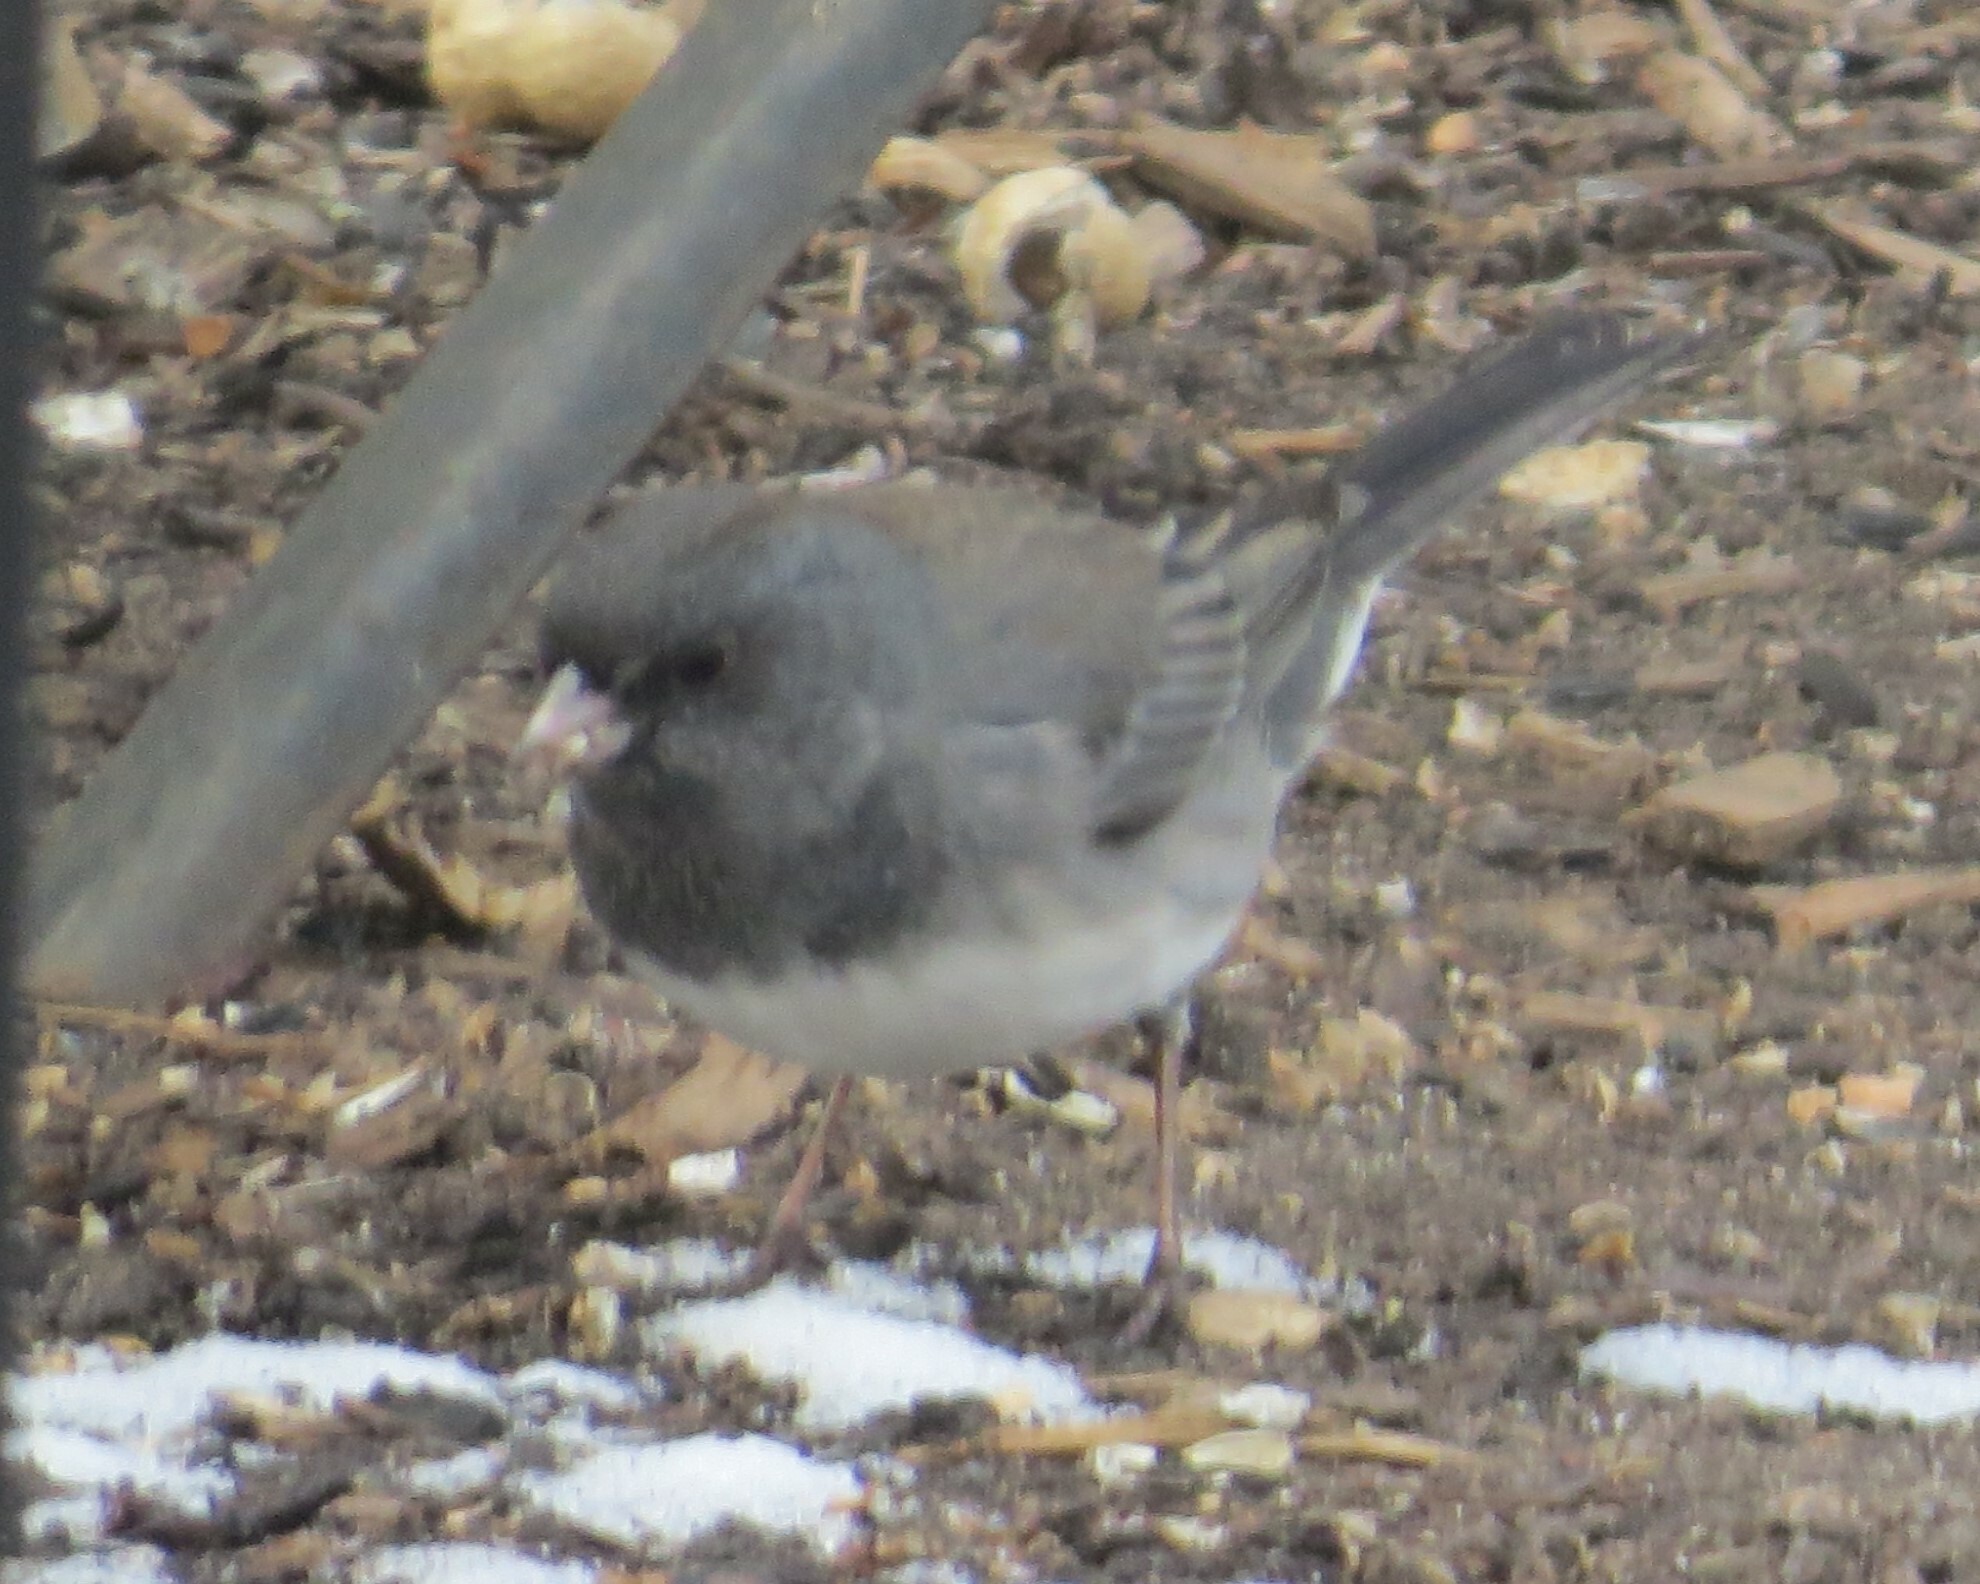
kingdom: Animalia
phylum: Chordata
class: Aves
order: Passeriformes
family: Passerellidae
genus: Junco
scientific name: Junco hyemalis
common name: Dark-eyed junco
